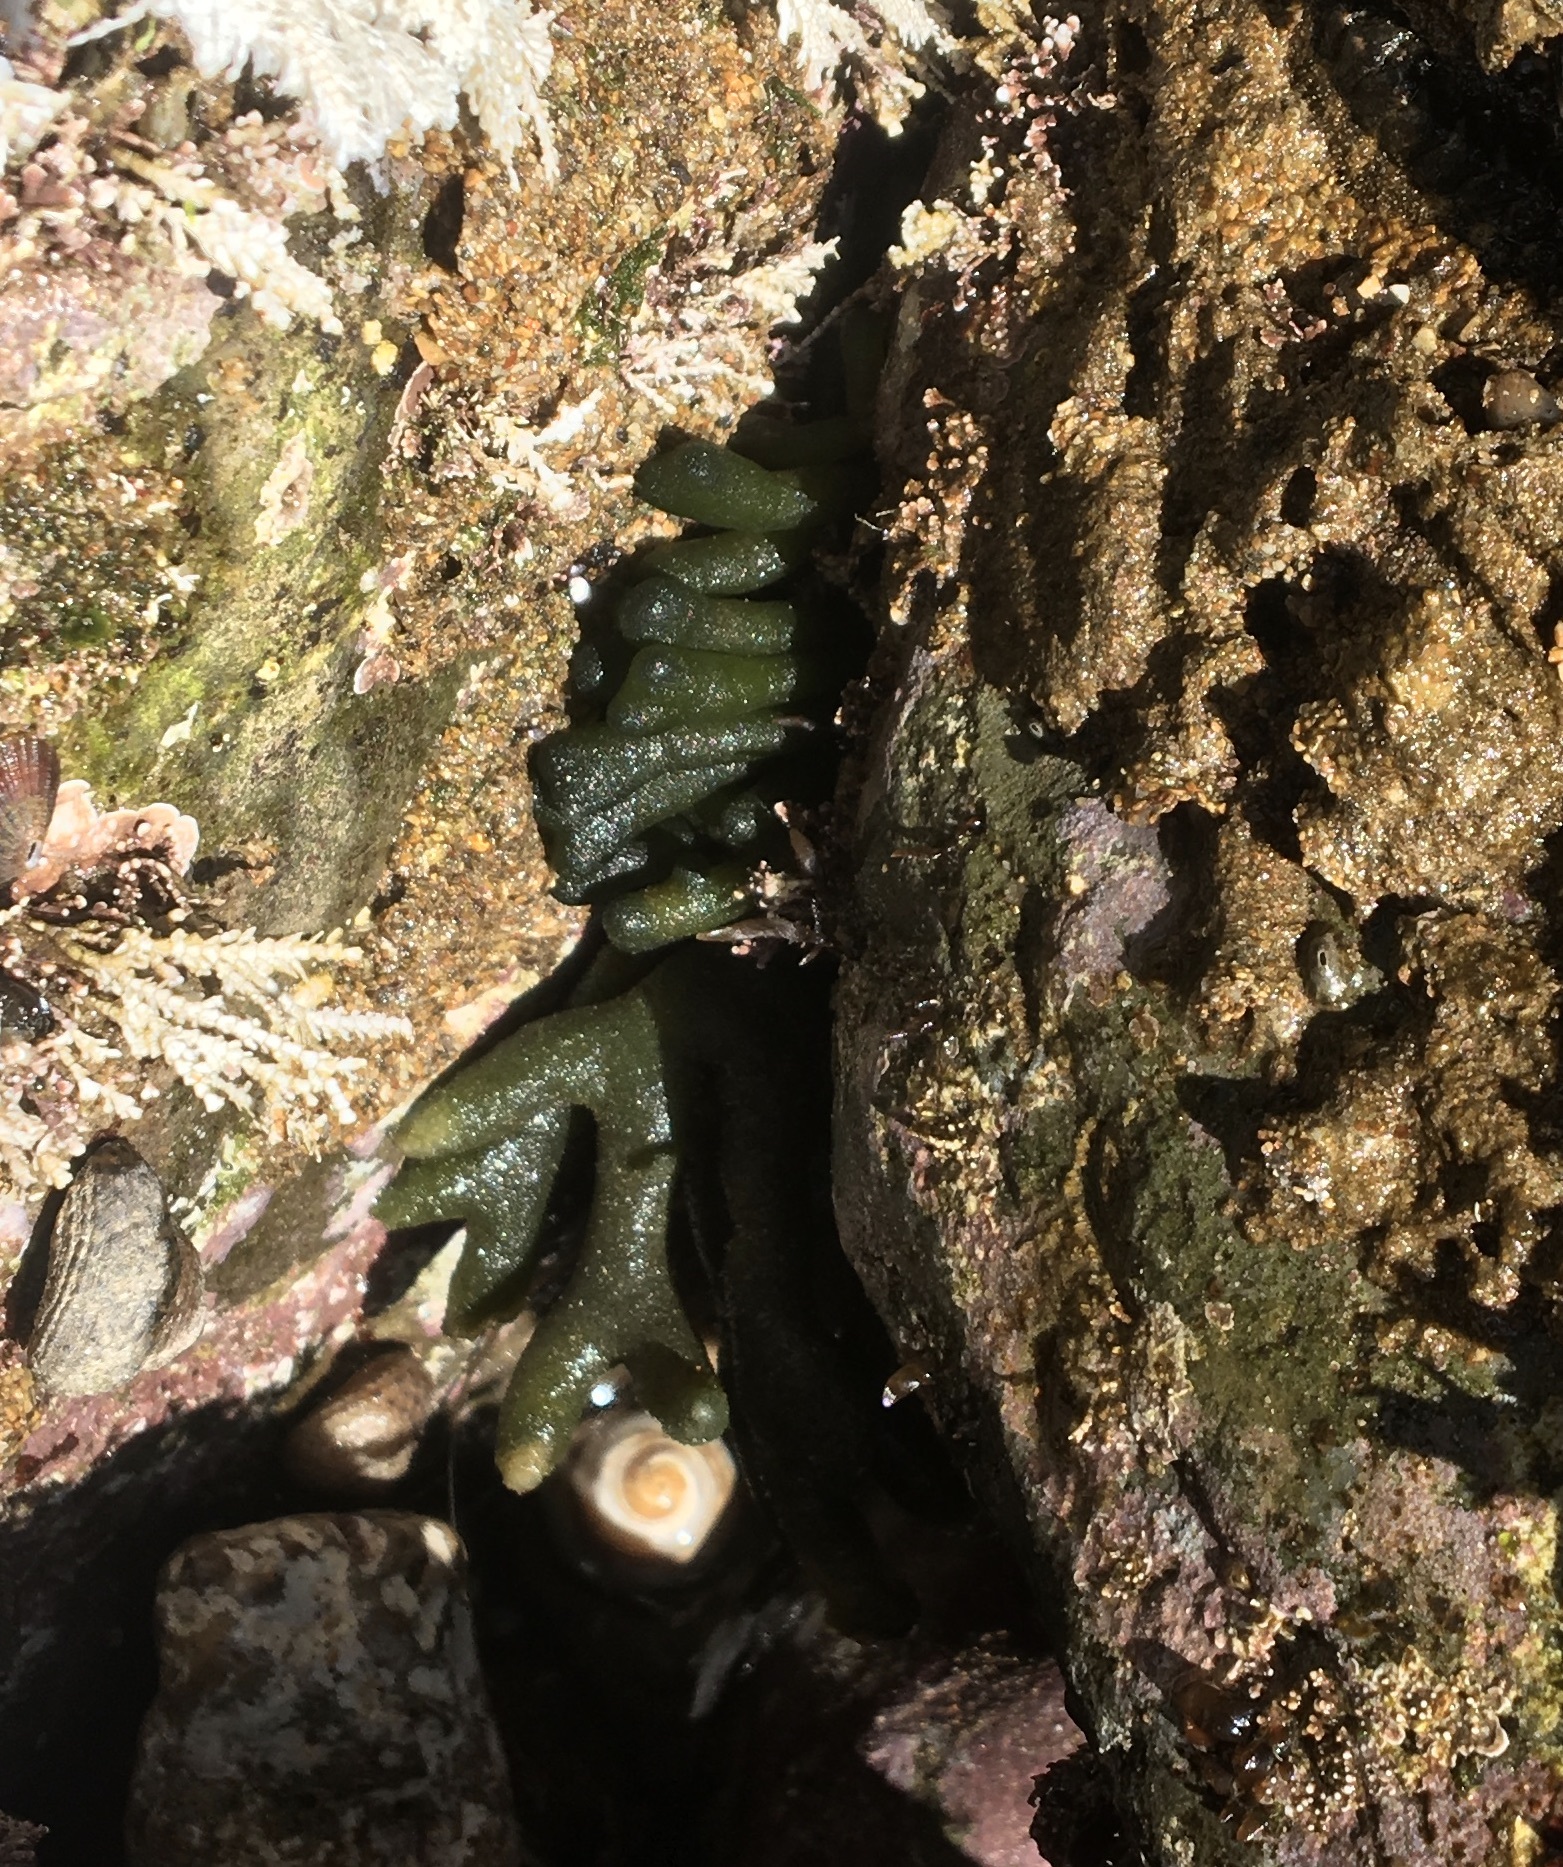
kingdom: Plantae
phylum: Chlorophyta
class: Ulvophyceae
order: Bryopsidales
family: Codiaceae
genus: Codium
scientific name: Codium fragile
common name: Dead man's fingers
